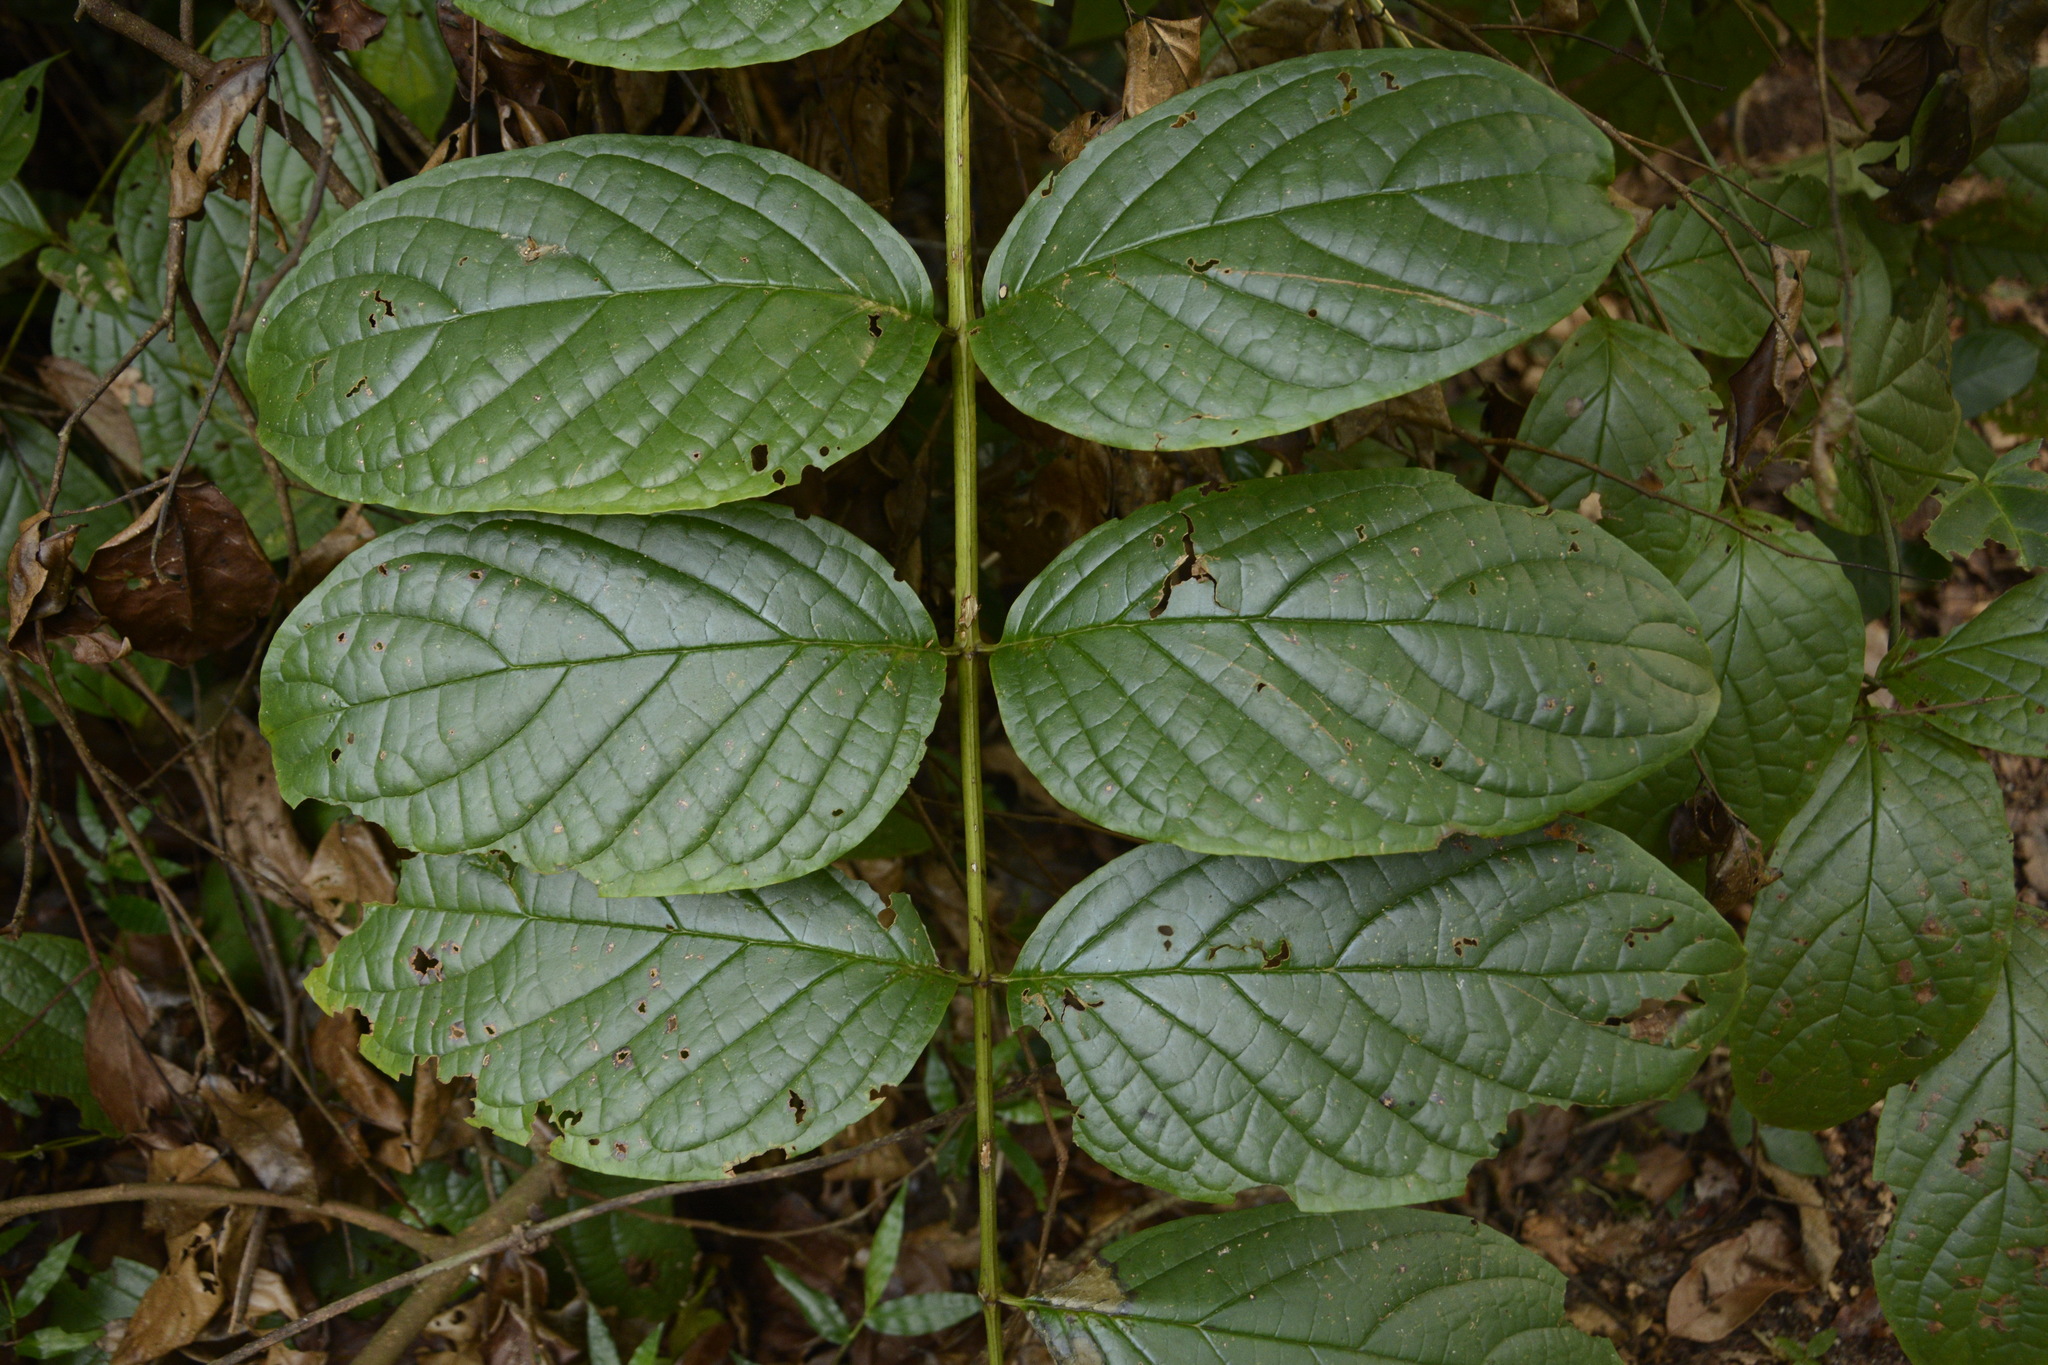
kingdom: Plantae
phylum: Tracheophyta
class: Magnoliopsida
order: Lamiales
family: Bignoniaceae
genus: Pajanelia
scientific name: Pajanelia longifolia
